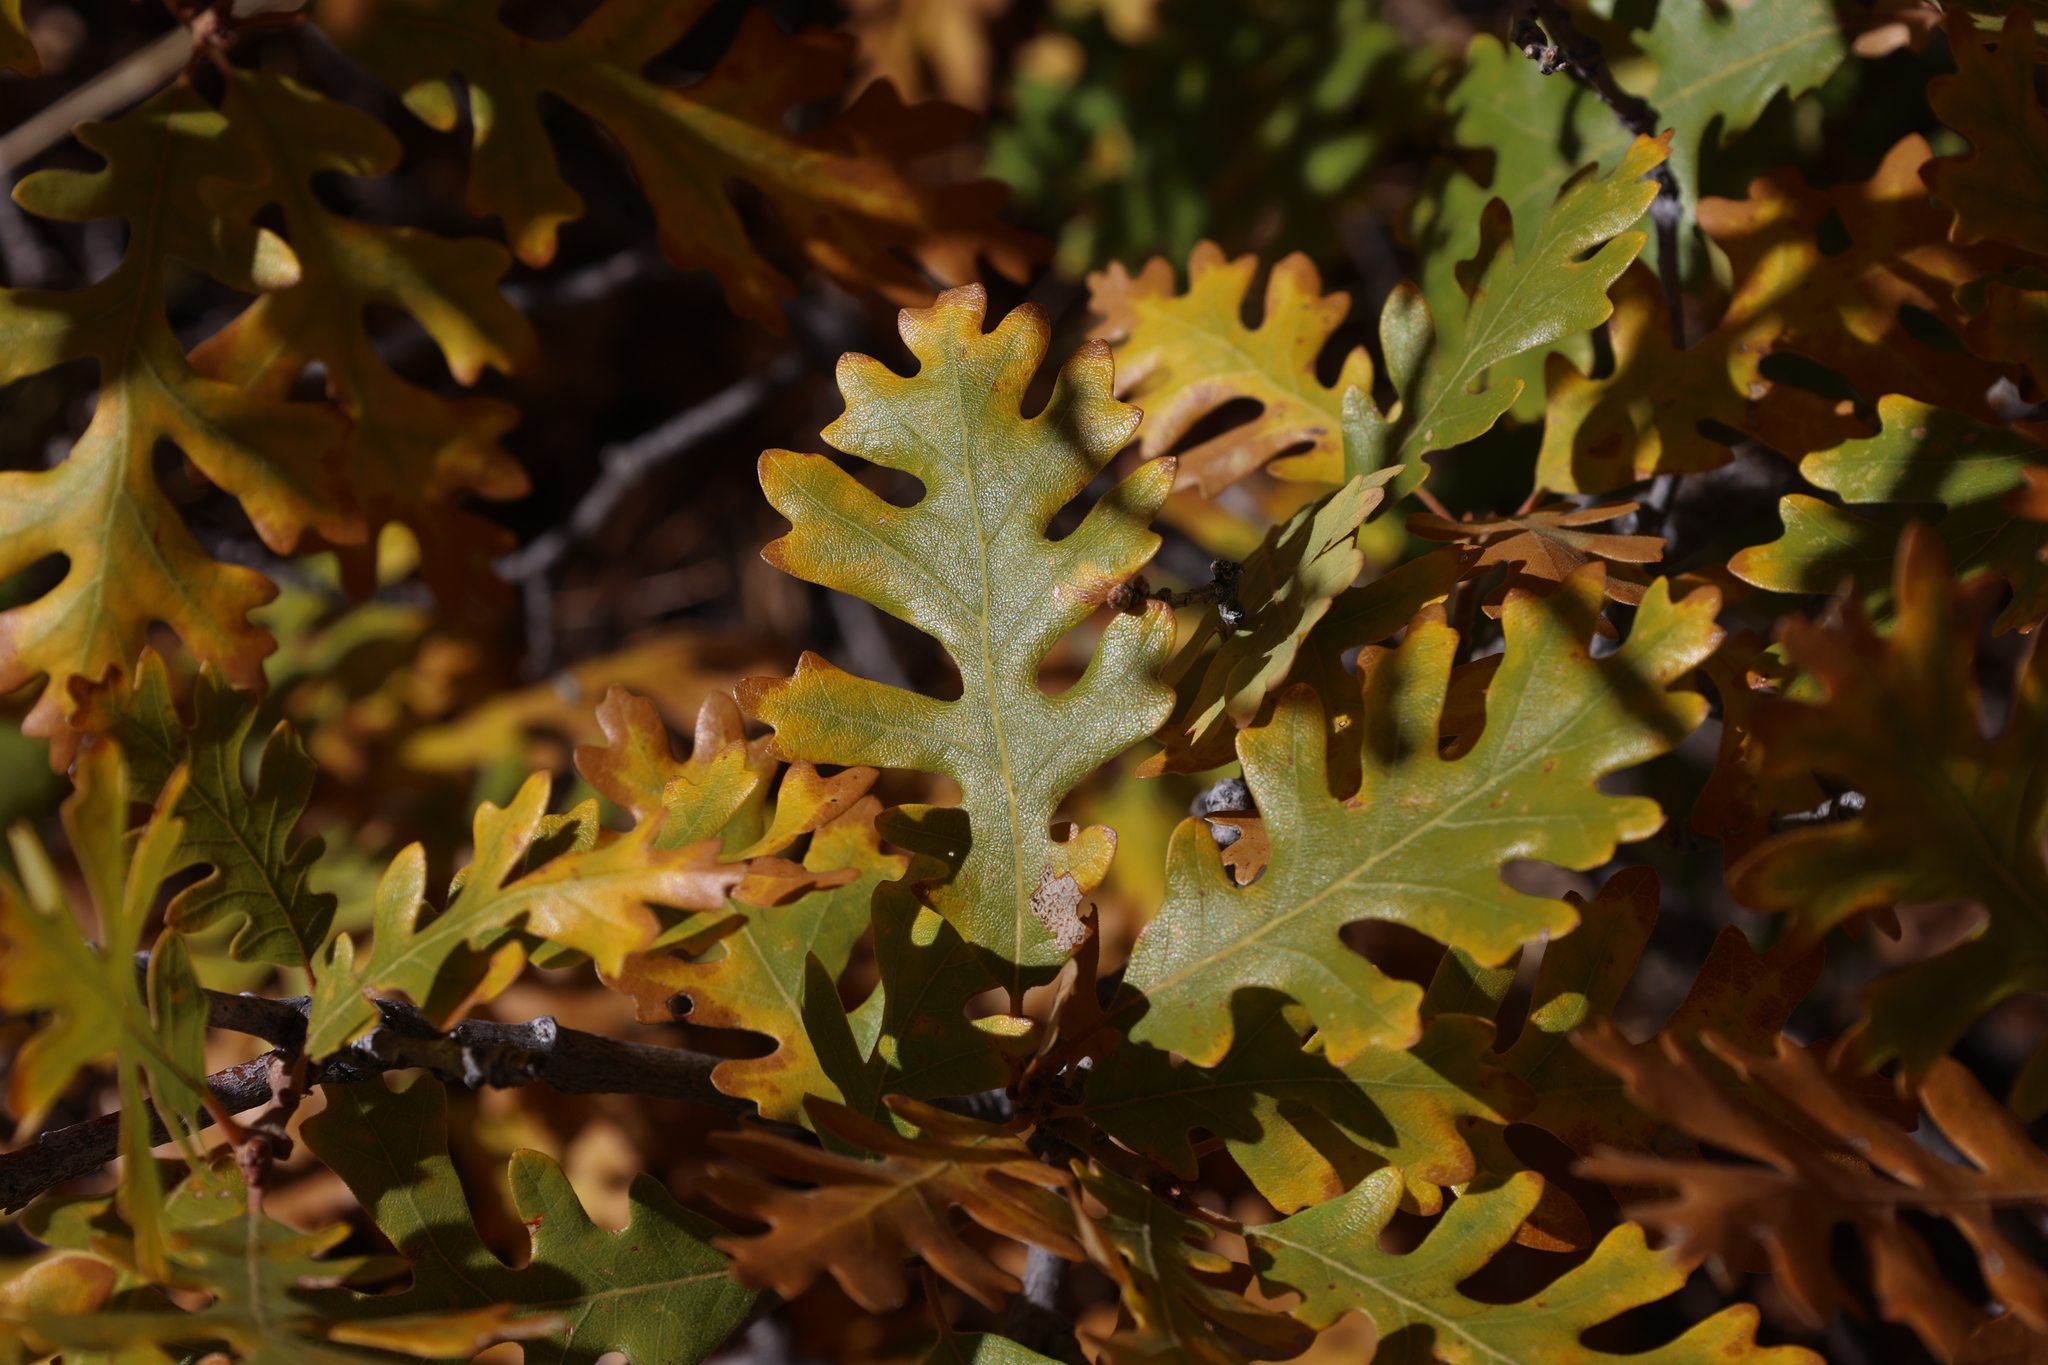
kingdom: Plantae
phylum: Tracheophyta
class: Magnoliopsida
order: Fagales
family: Fagaceae
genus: Quercus
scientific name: Quercus gambelii
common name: Gambel oak
